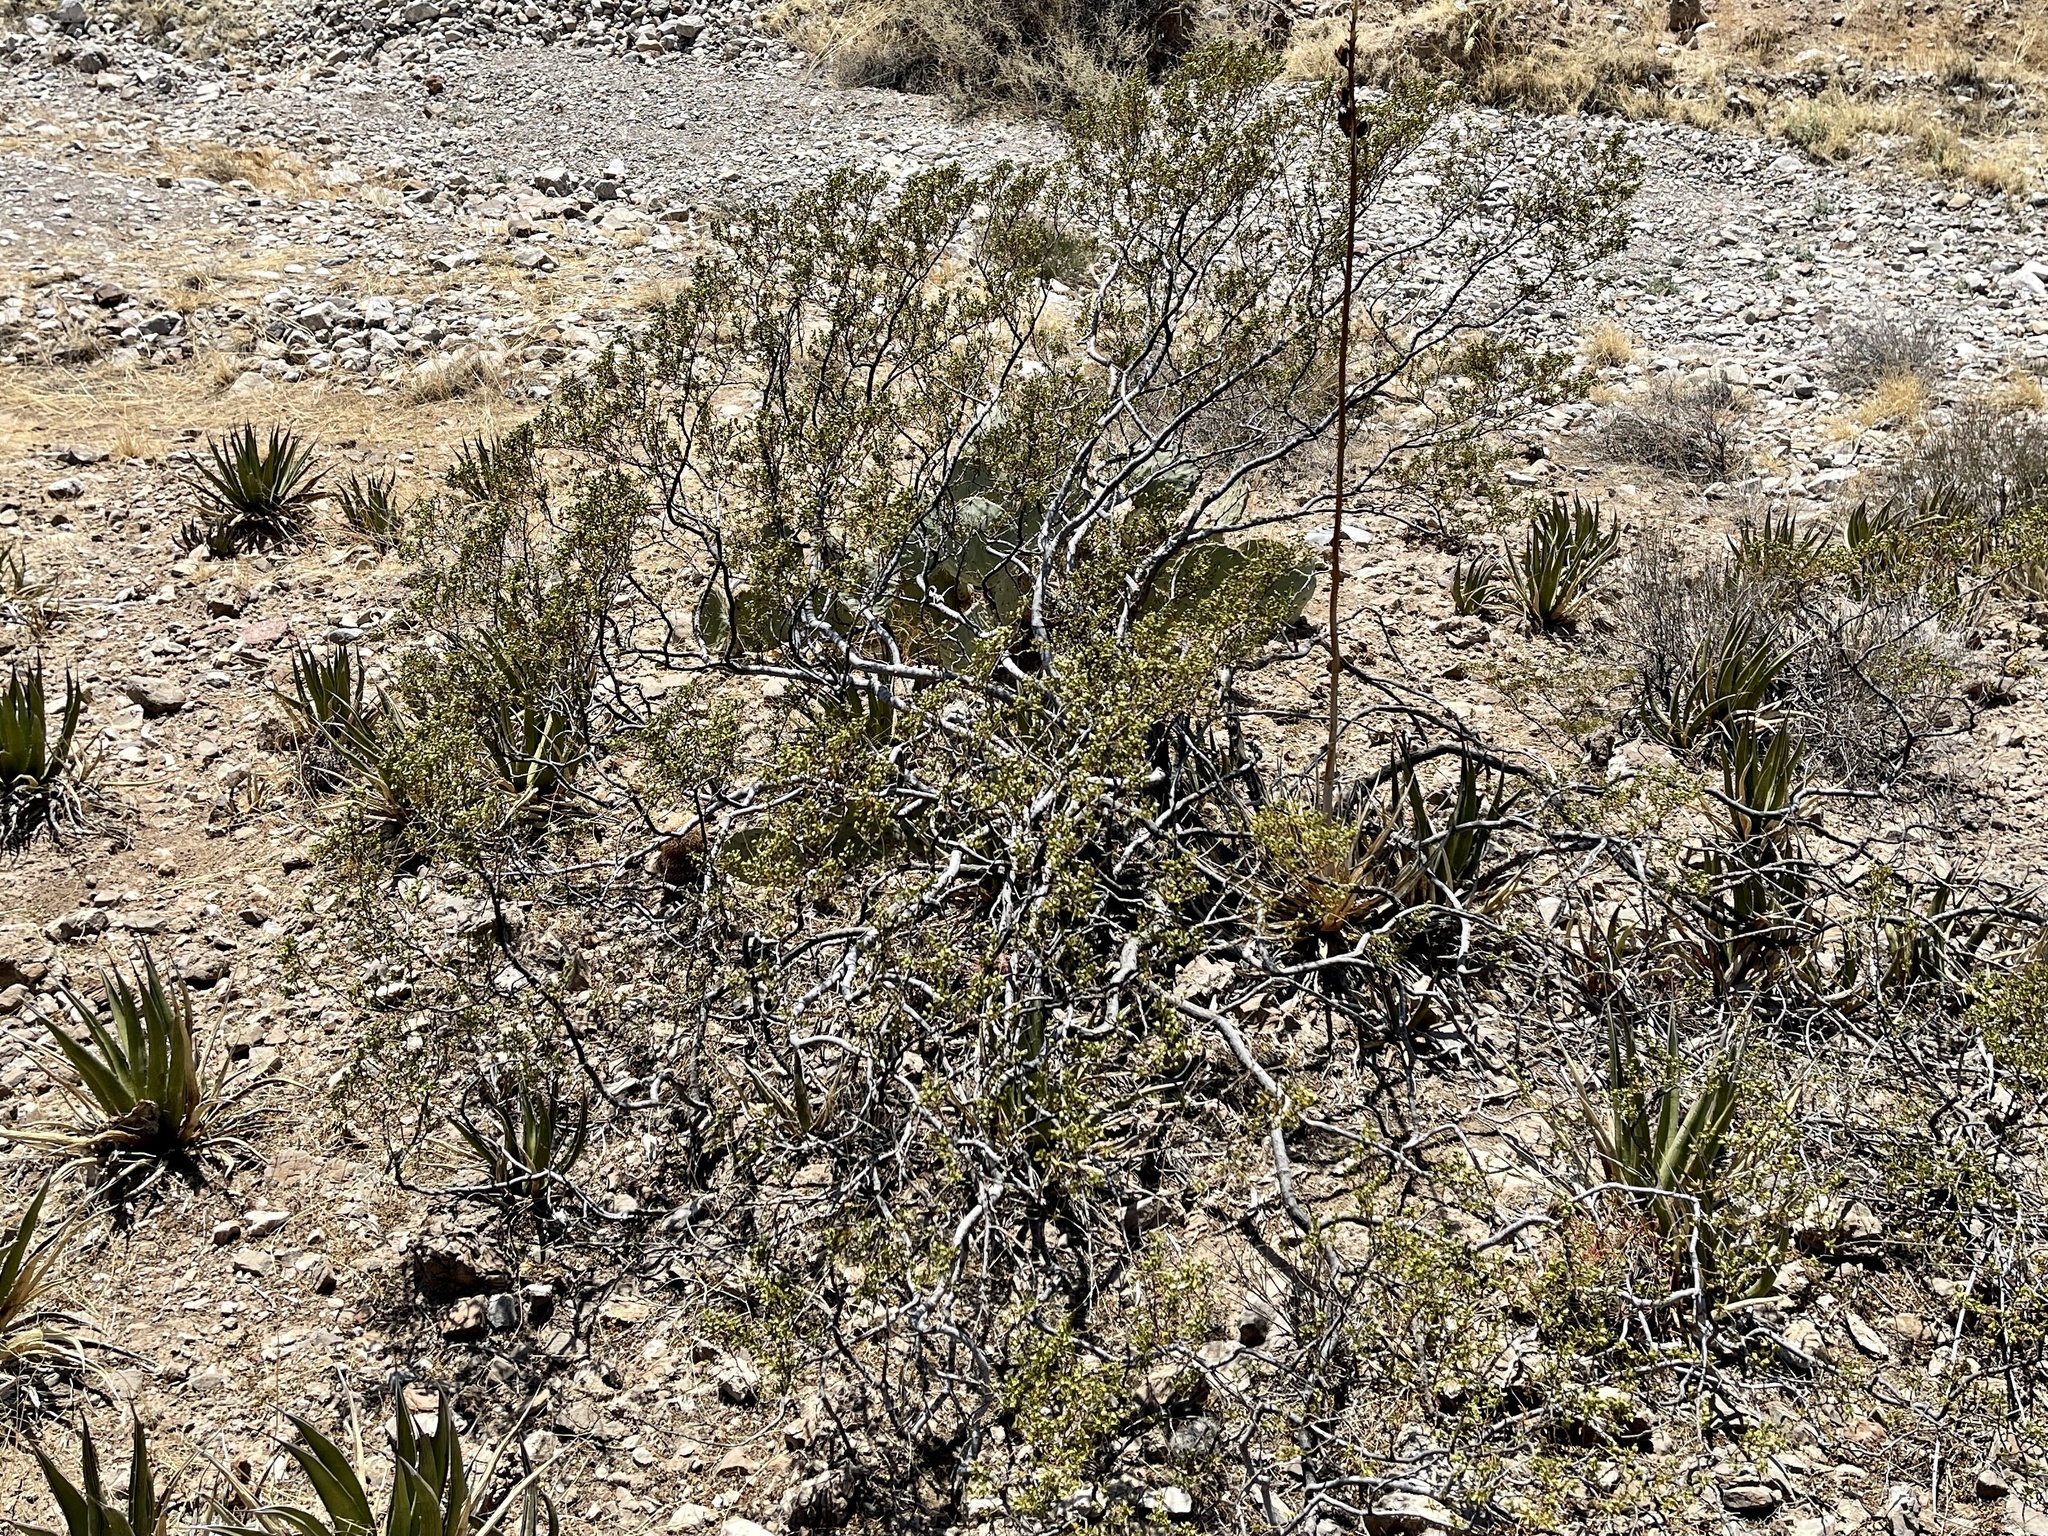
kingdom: Plantae
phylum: Tracheophyta
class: Magnoliopsida
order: Zygophyllales
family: Zygophyllaceae
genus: Larrea
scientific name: Larrea tridentata
